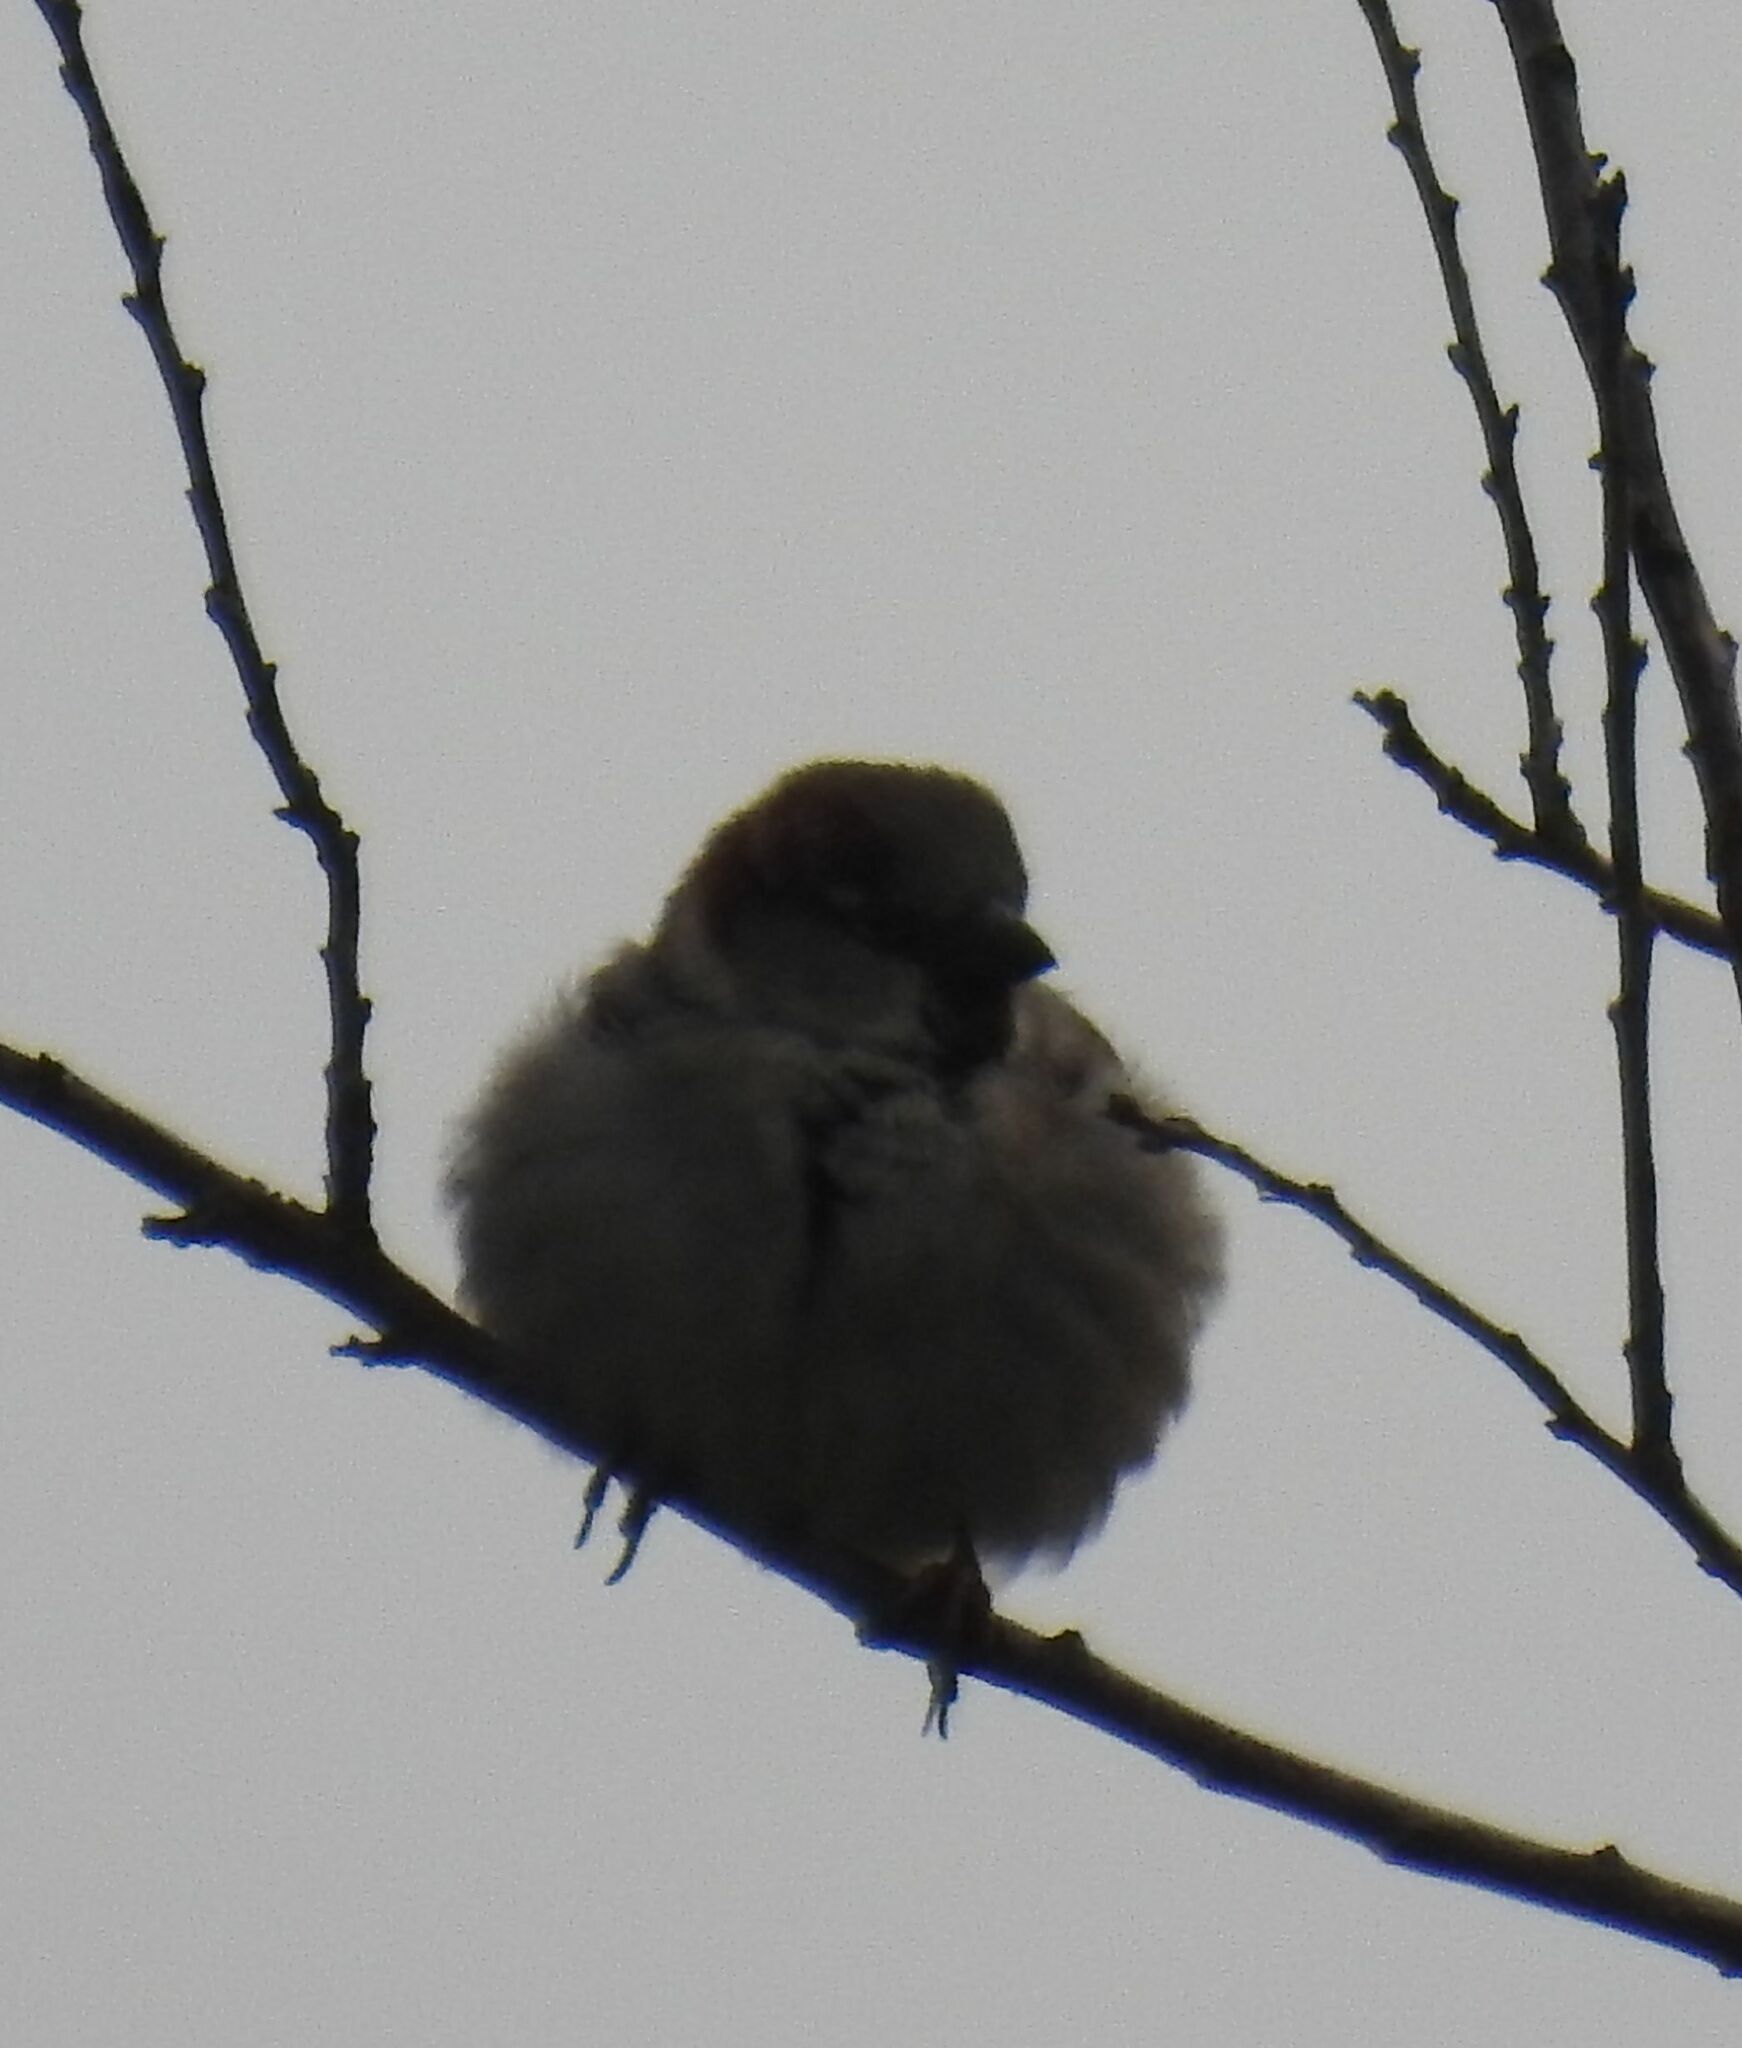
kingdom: Animalia
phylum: Chordata
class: Aves
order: Passeriformes
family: Passeridae
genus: Passer
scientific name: Passer domesticus
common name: House sparrow
